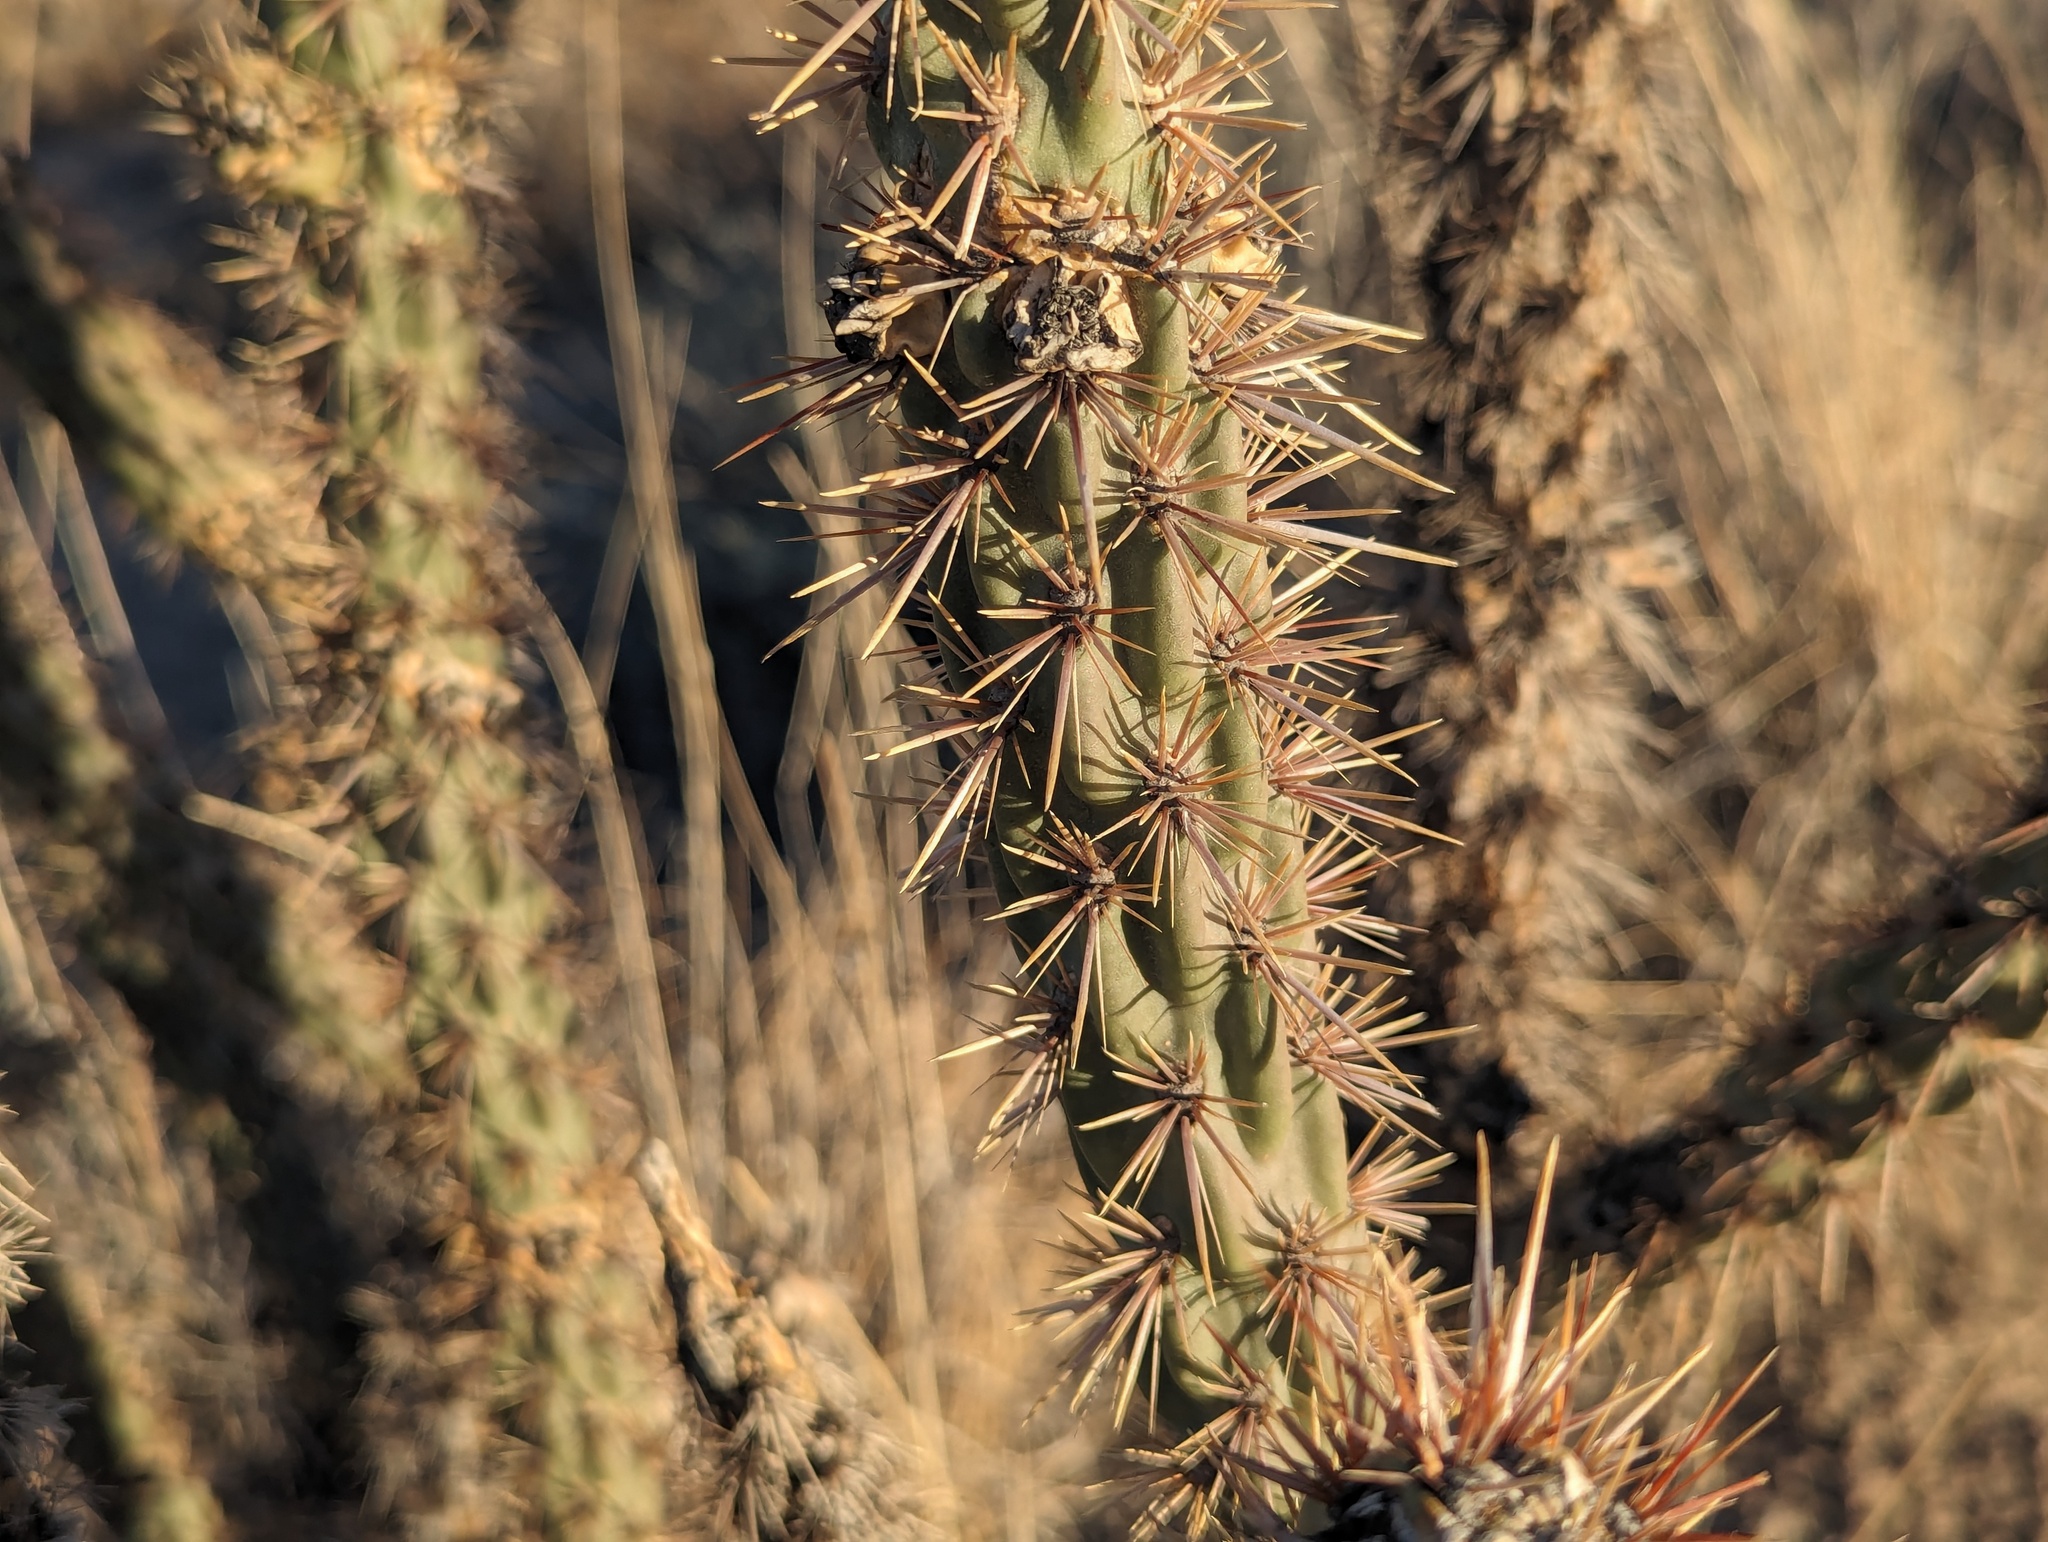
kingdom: Plantae
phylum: Tracheophyta
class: Magnoliopsida
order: Caryophyllales
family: Cactaceae
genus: Cylindropuntia
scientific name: Cylindropuntia imbricata
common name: Candelabrum cactus
